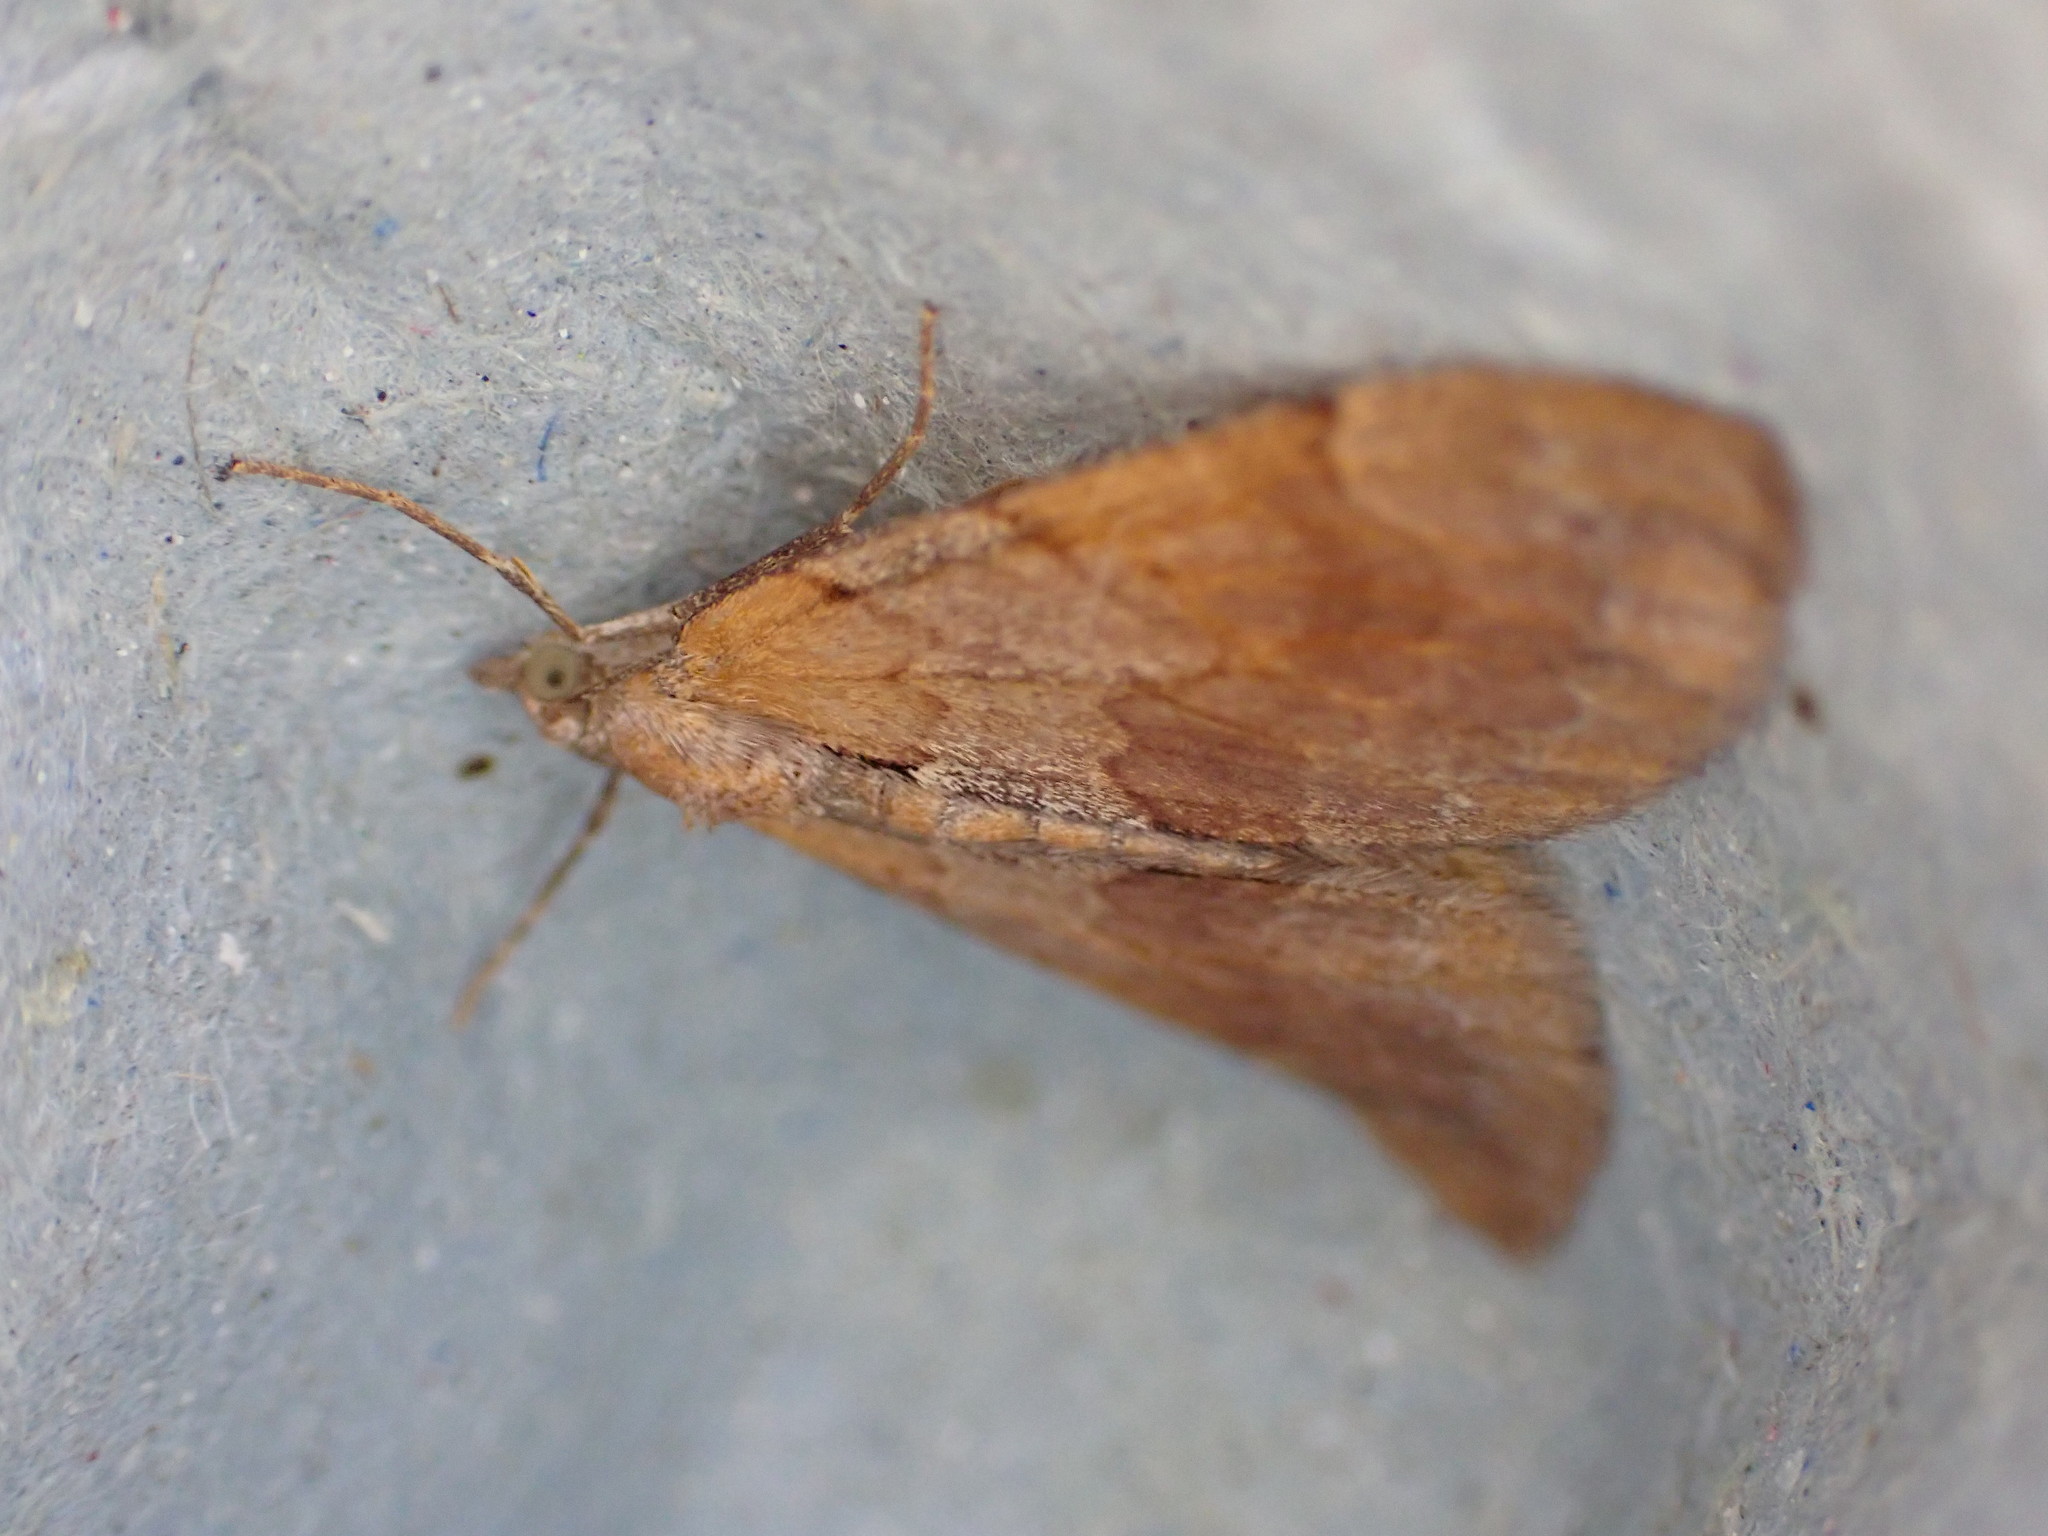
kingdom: Animalia
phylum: Arthropoda
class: Insecta
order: Lepidoptera
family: Geometridae
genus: Pennithera
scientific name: Pennithera firmata
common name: Pine carpet
